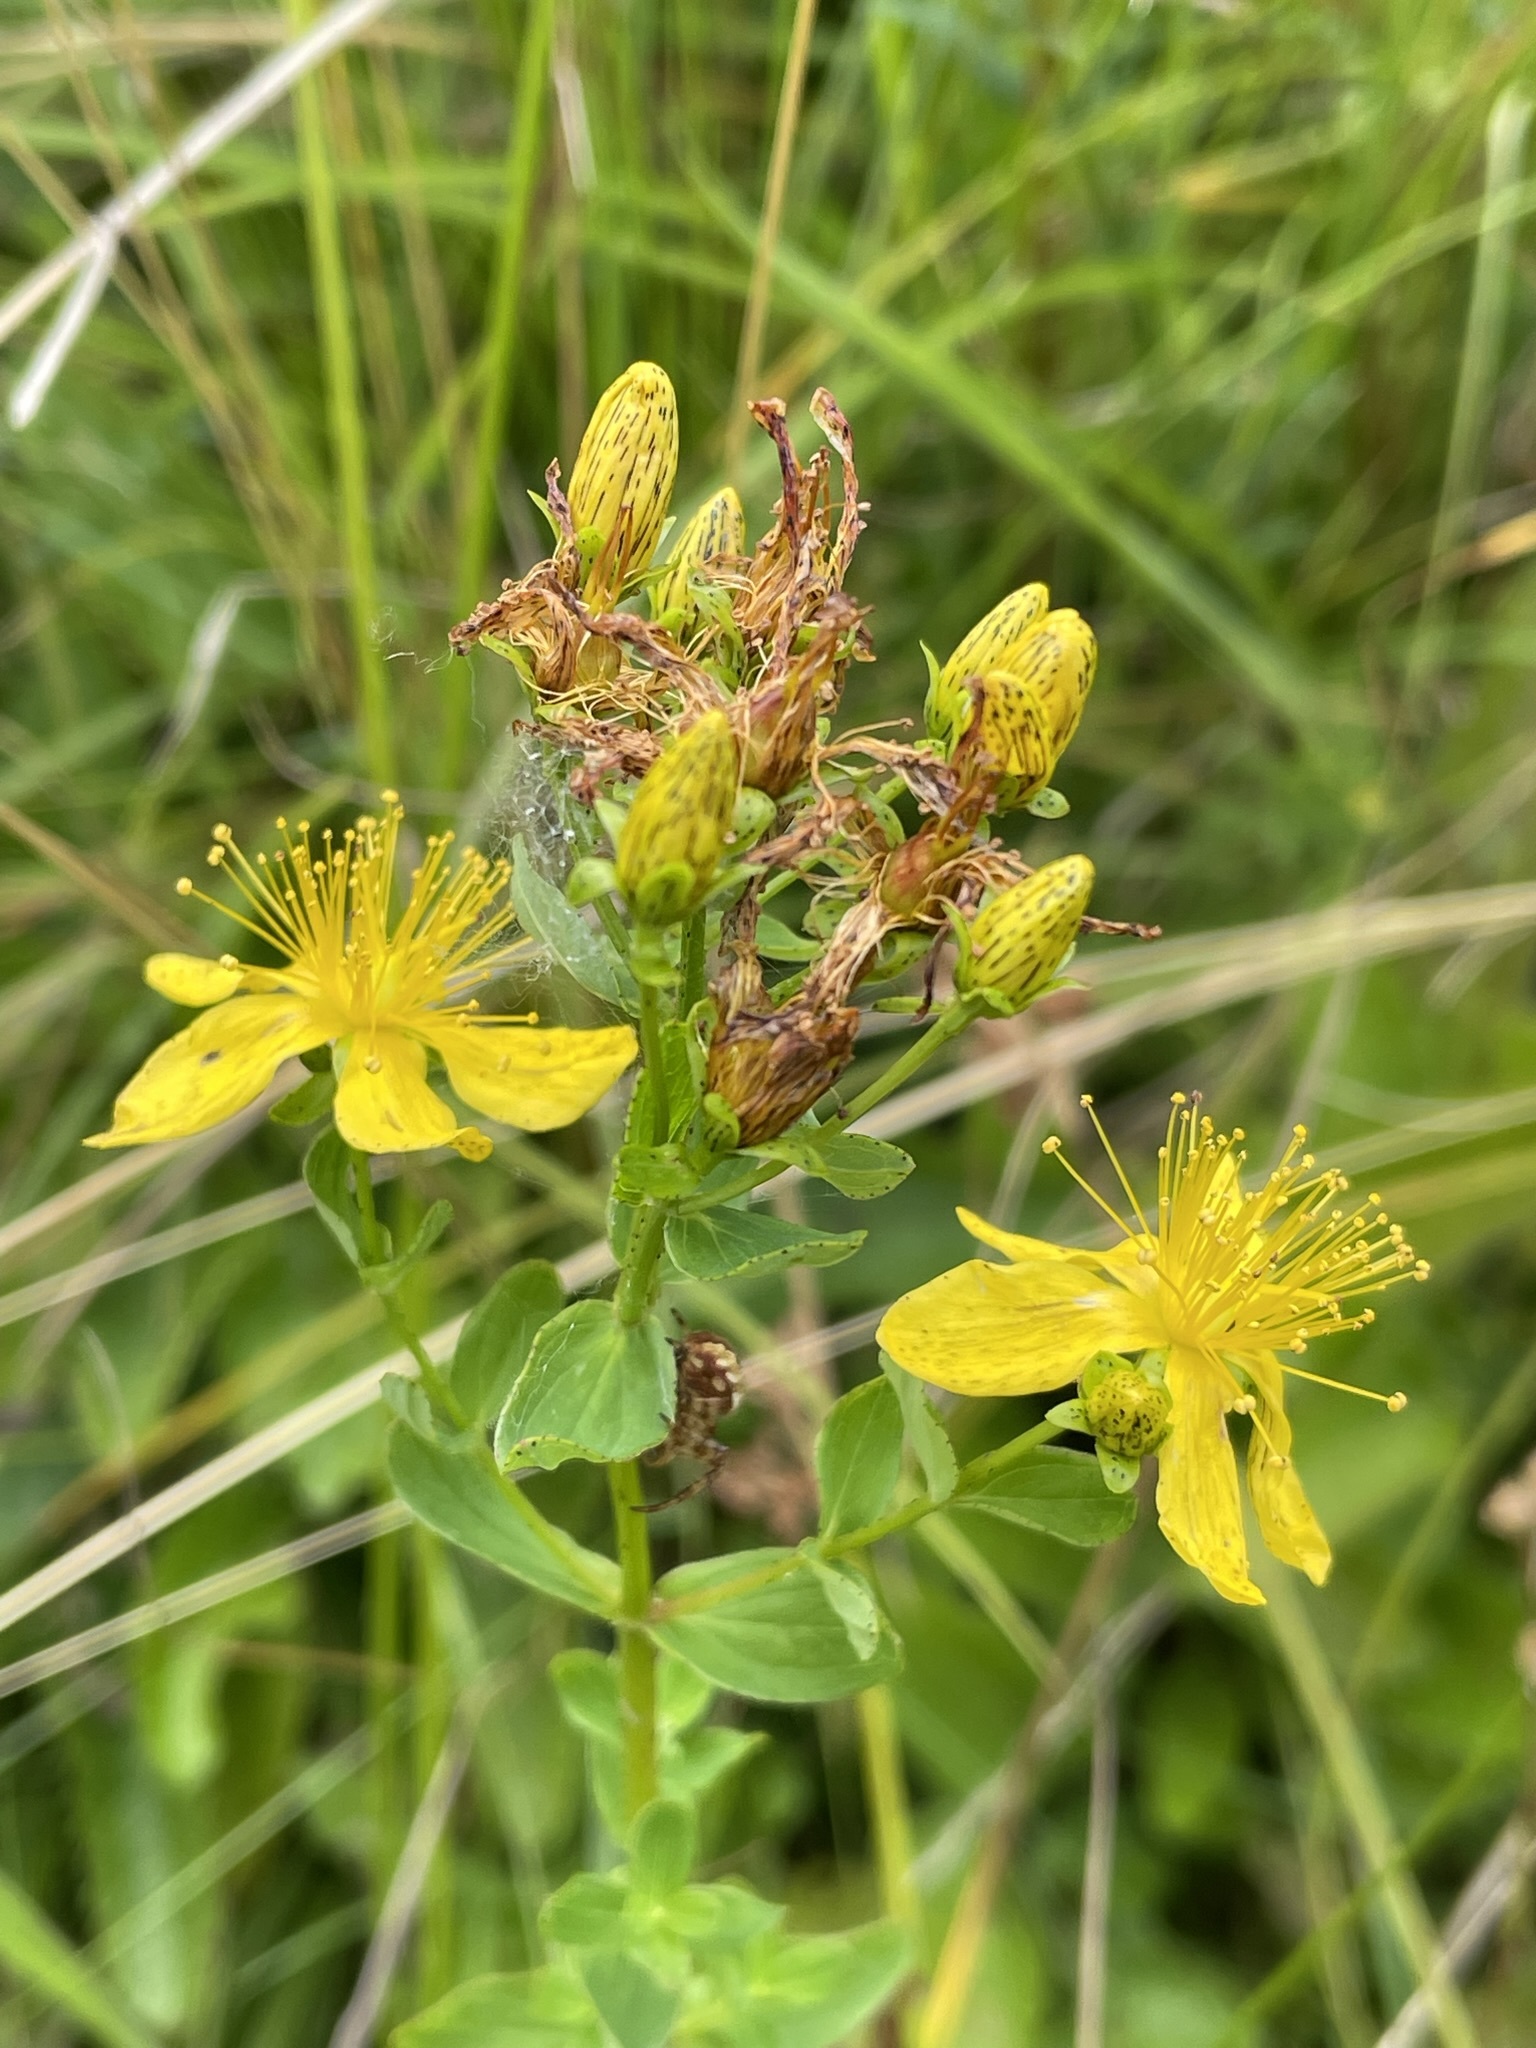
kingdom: Plantae
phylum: Tracheophyta
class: Magnoliopsida
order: Malpighiales
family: Hypericaceae
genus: Hypericum
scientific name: Hypericum maculatum
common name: Imperforate st. john's-wort
